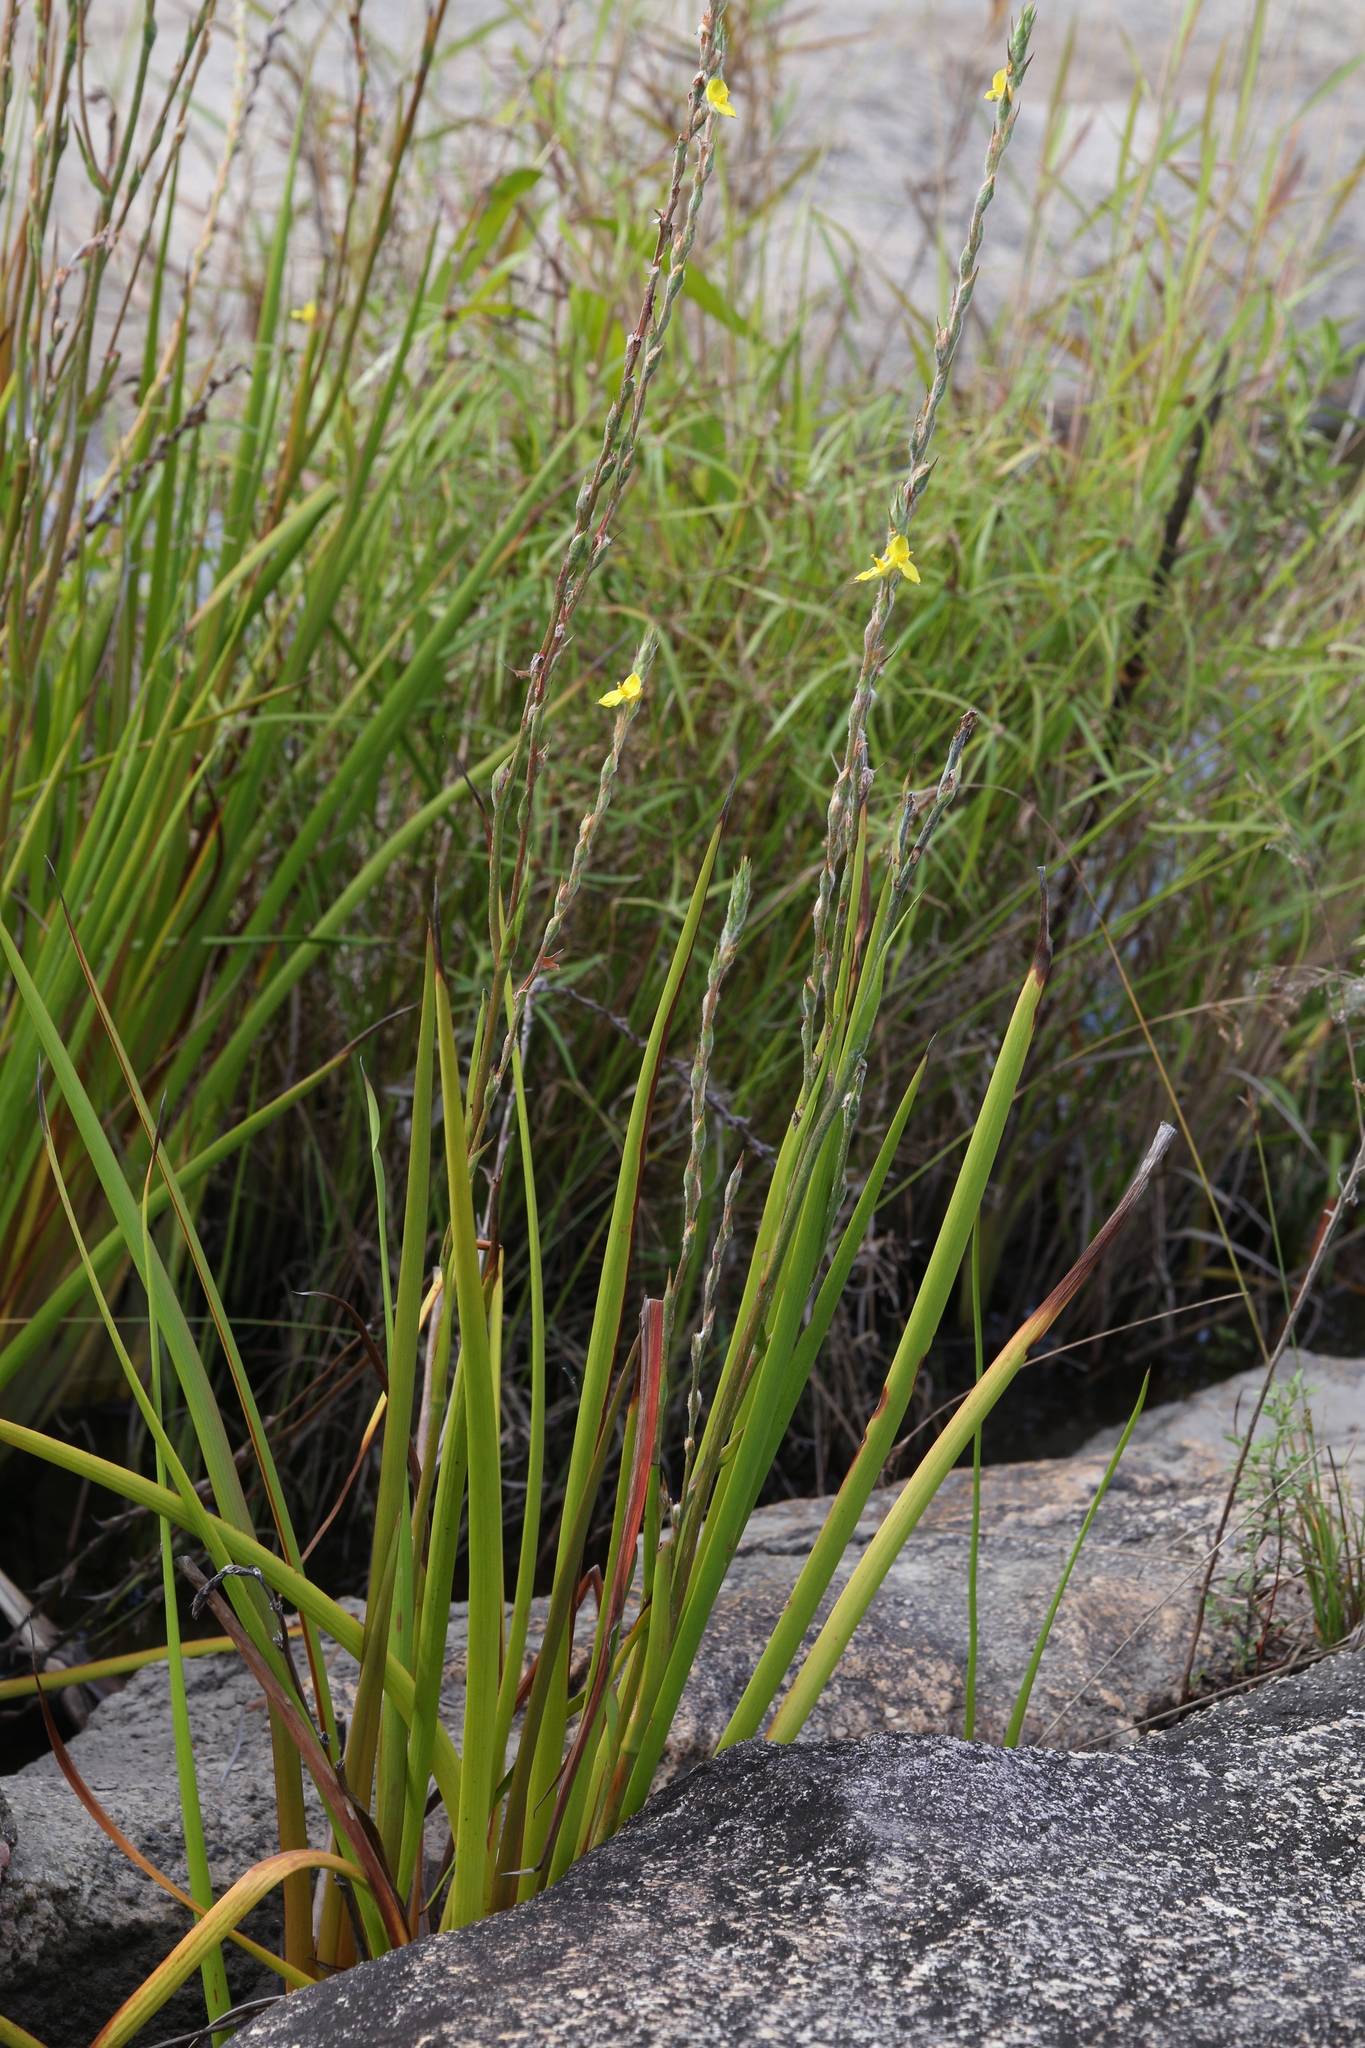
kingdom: Plantae
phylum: Tracheophyta
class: Liliopsida
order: Commelinales
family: Philydraceae
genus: Philydrum
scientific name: Philydrum lanuginosum
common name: Woolly frog's mouth
